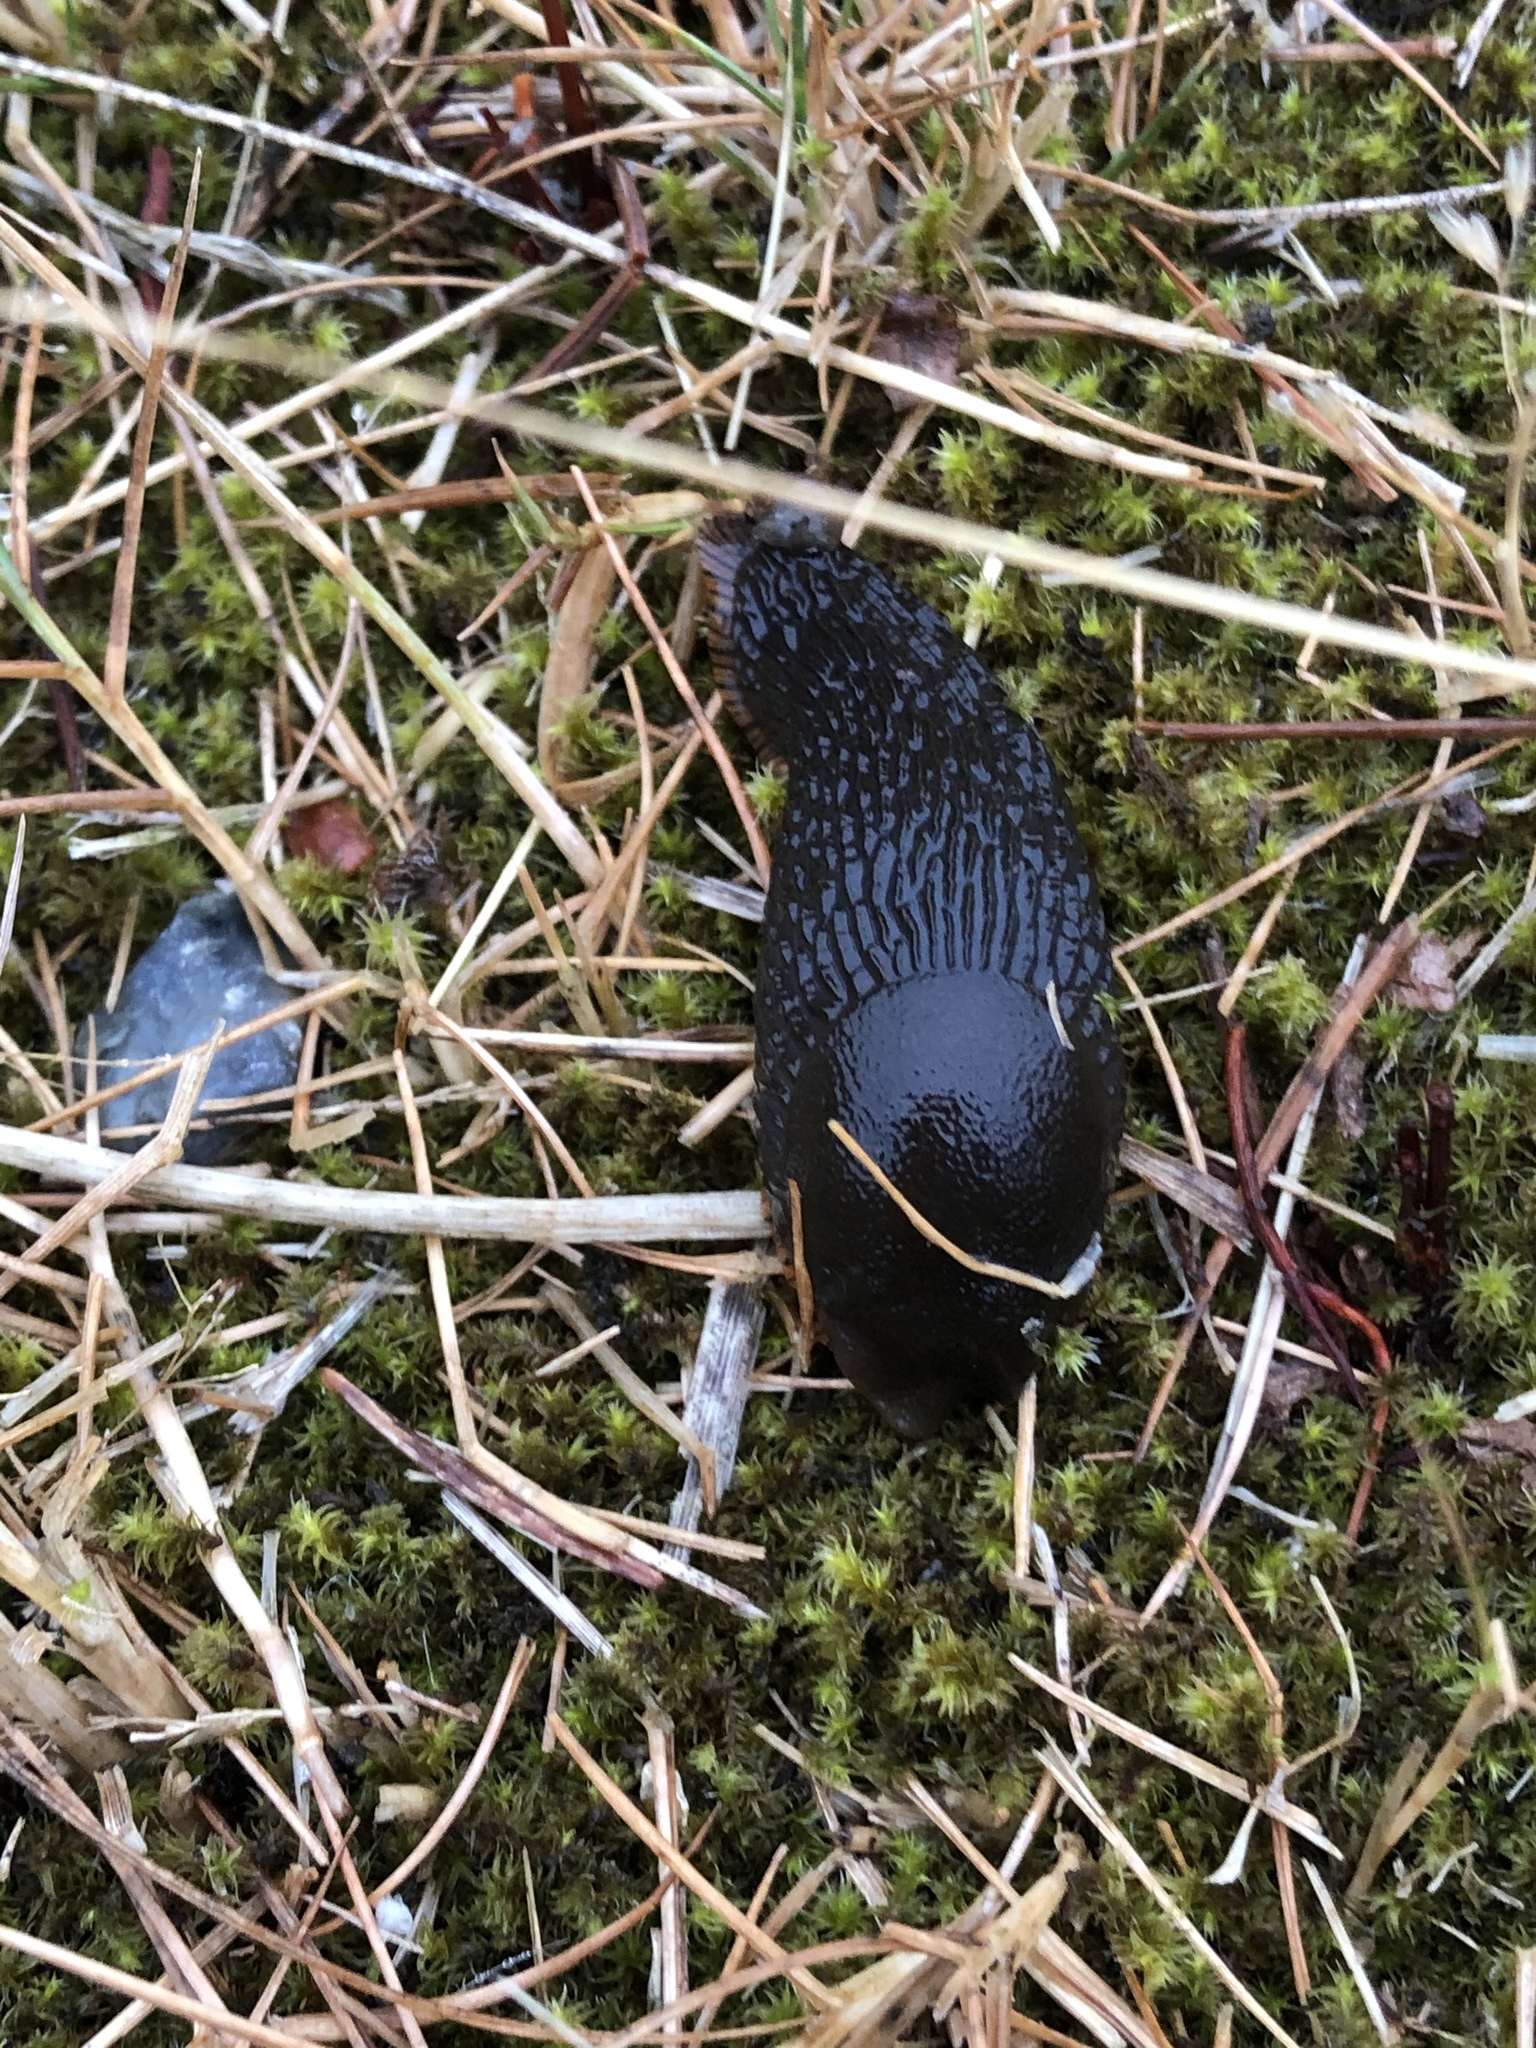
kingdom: Animalia
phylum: Mollusca
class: Gastropoda
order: Stylommatophora
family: Arionidae
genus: Arion
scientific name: Arion rufus
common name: Chocolate arion
